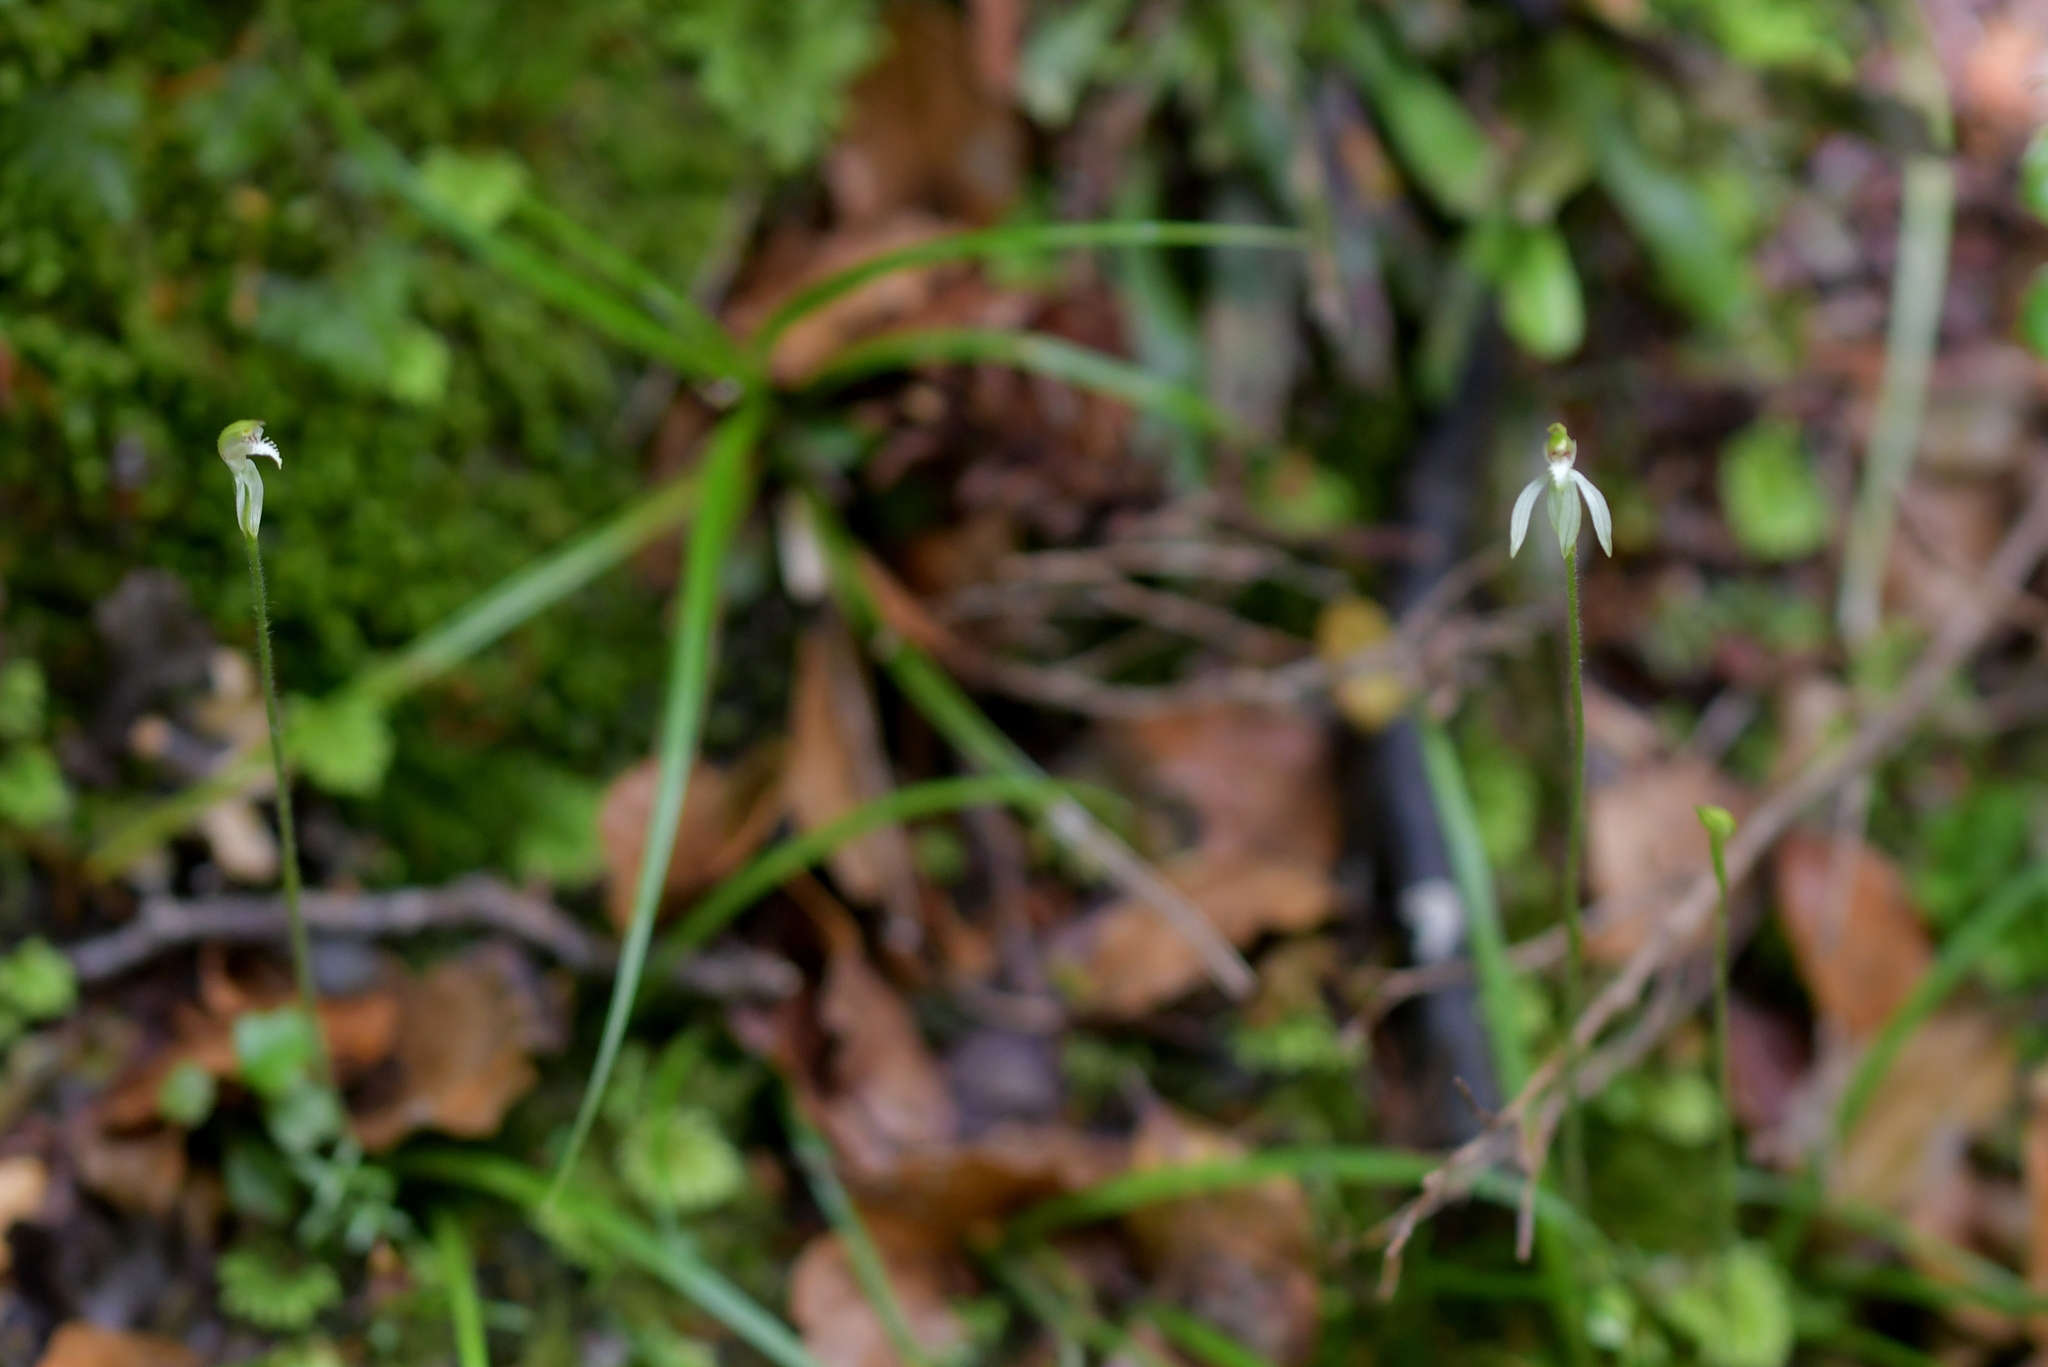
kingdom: Plantae
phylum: Tracheophyta
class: Liliopsida
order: Asparagales
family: Orchidaceae
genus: Caladenia
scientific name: Caladenia chlorostyla
